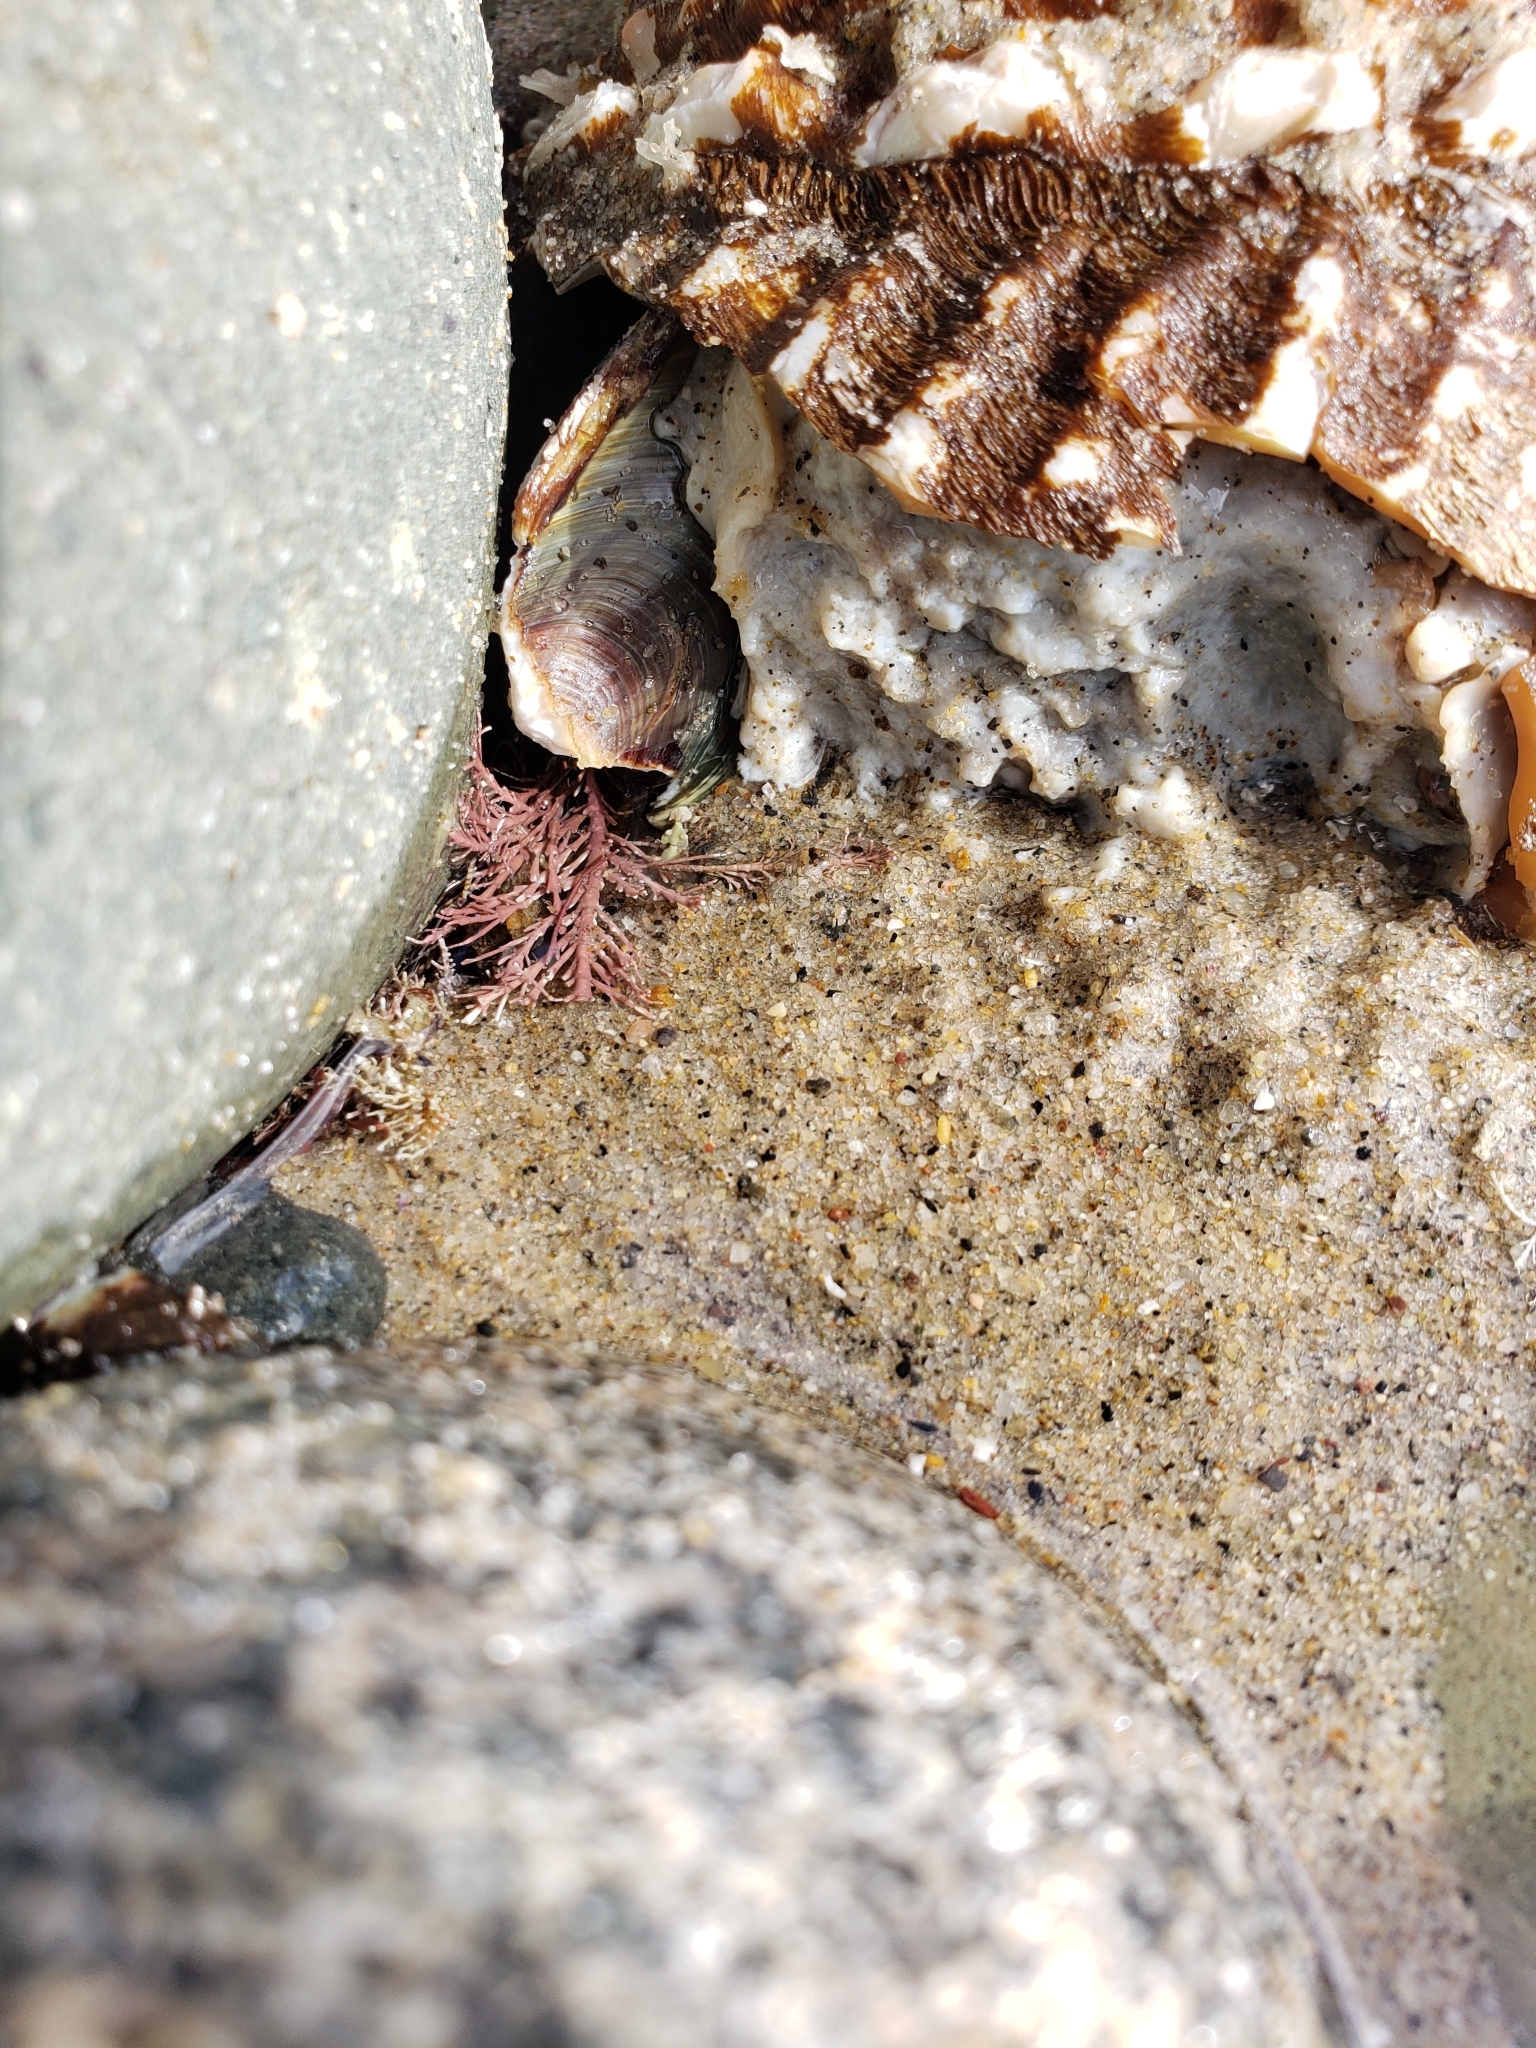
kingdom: Animalia
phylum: Mollusca
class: Gastropoda
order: Trochida
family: Turbinidae
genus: Megastraea
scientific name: Megastraea undosa
